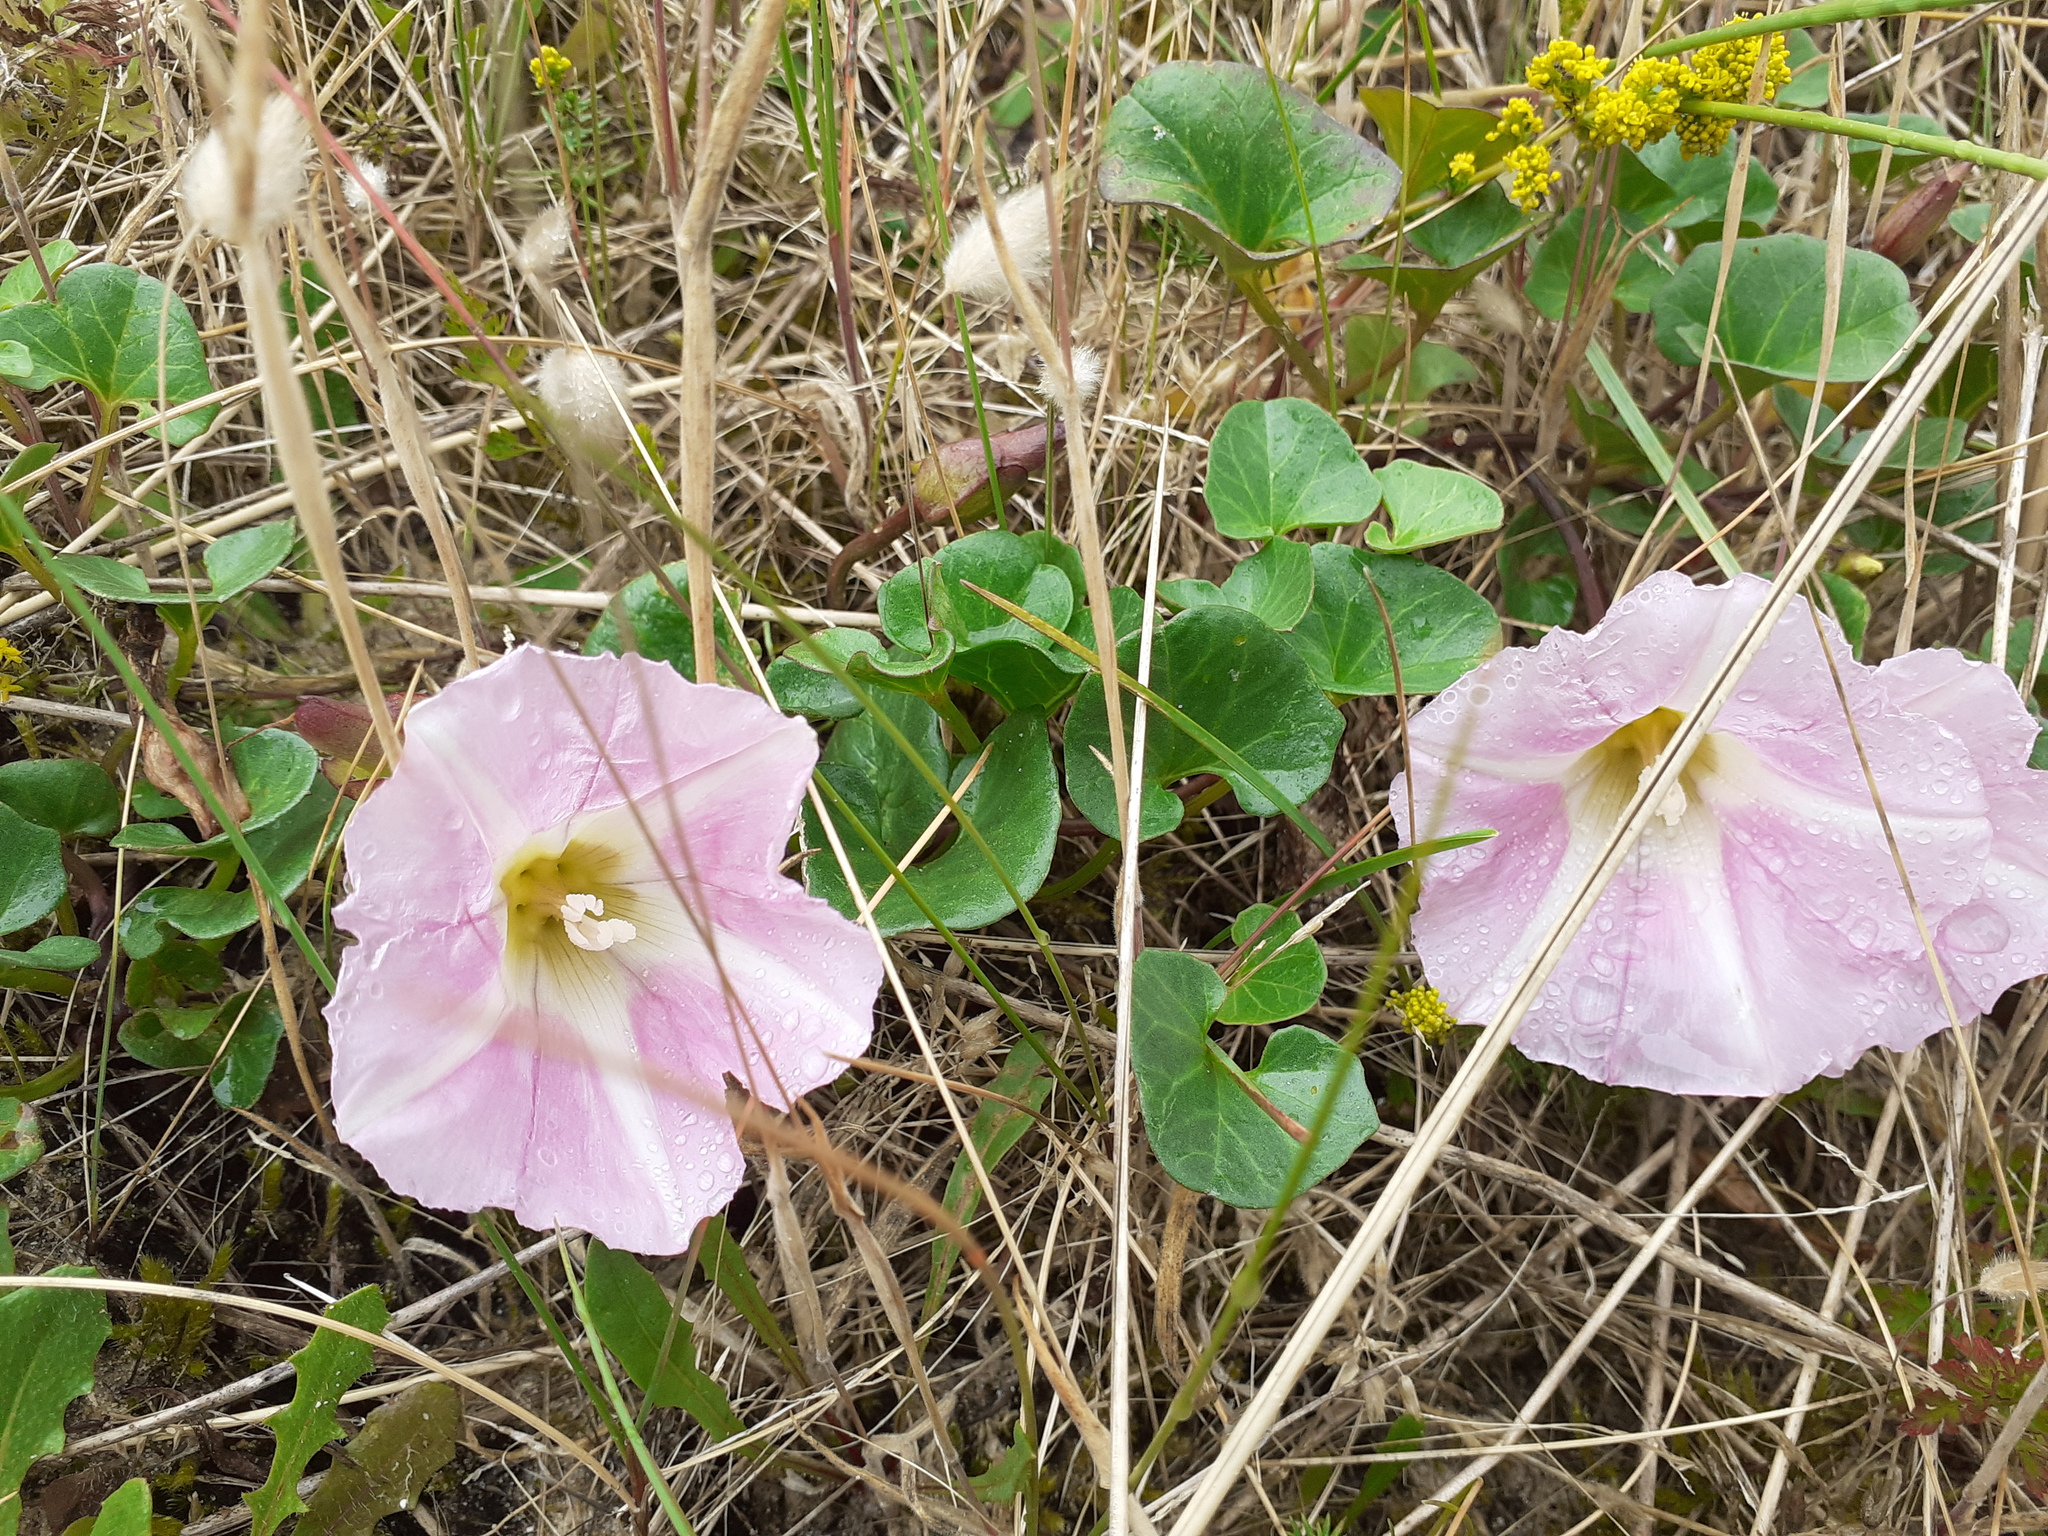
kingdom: Plantae
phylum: Tracheophyta
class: Magnoliopsida
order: Solanales
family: Convolvulaceae
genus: Calystegia
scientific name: Calystegia soldanella
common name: Sea bindweed
